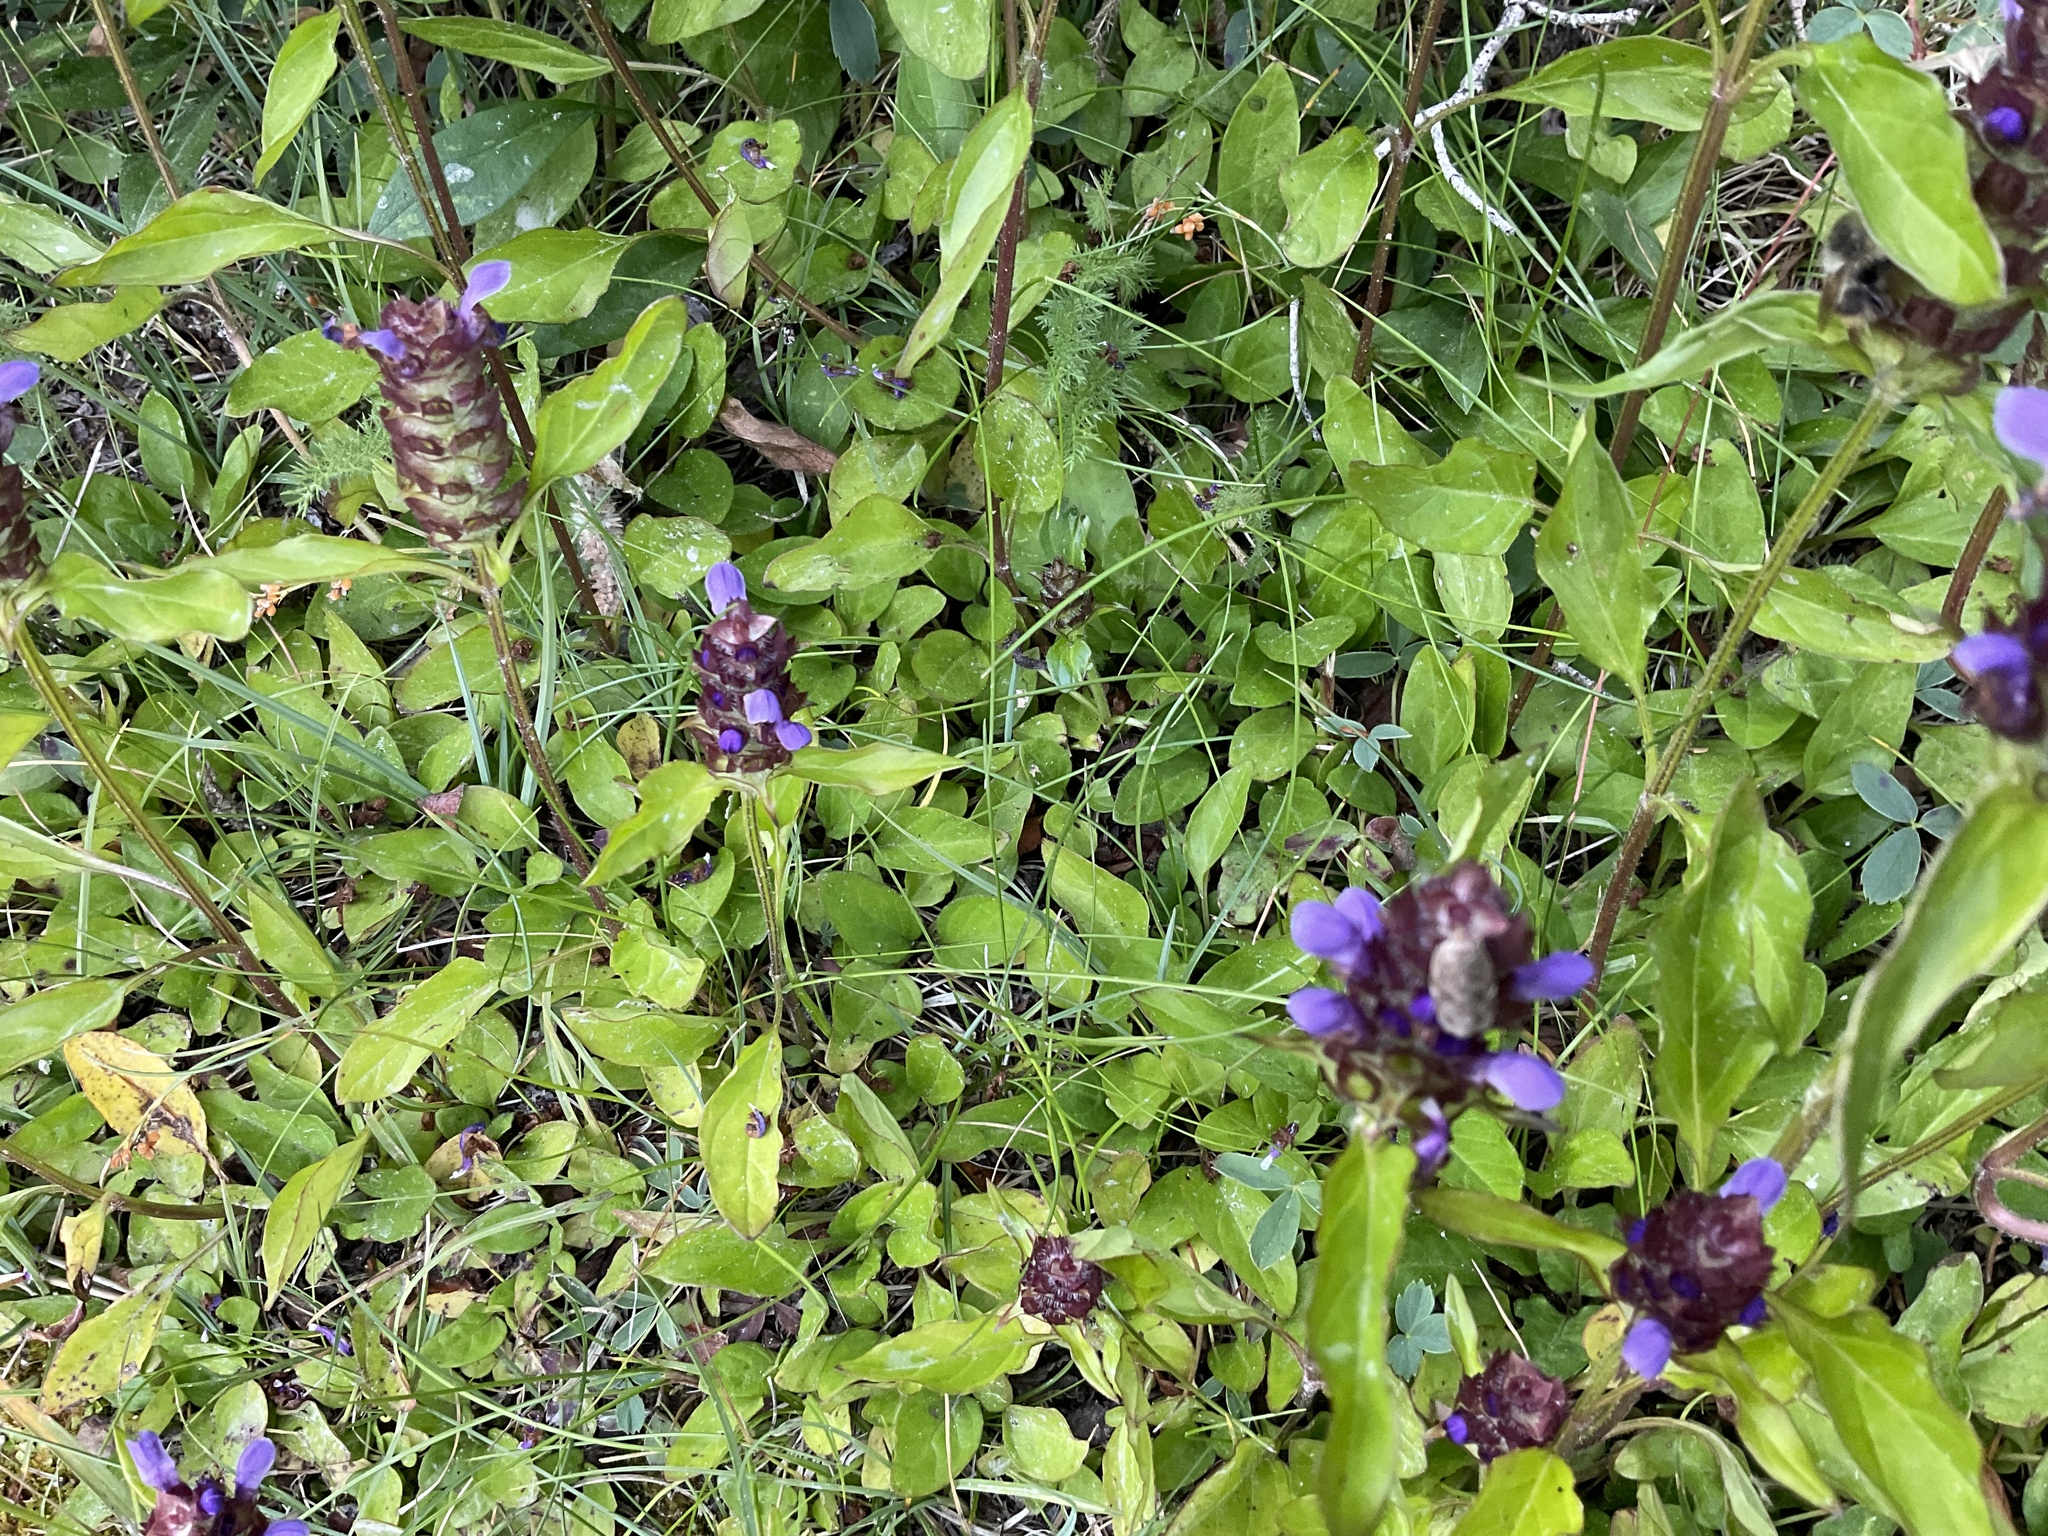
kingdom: Plantae
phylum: Tracheophyta
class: Magnoliopsida
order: Lamiales
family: Lamiaceae
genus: Prunella
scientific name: Prunella vulgaris
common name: Heal-all
